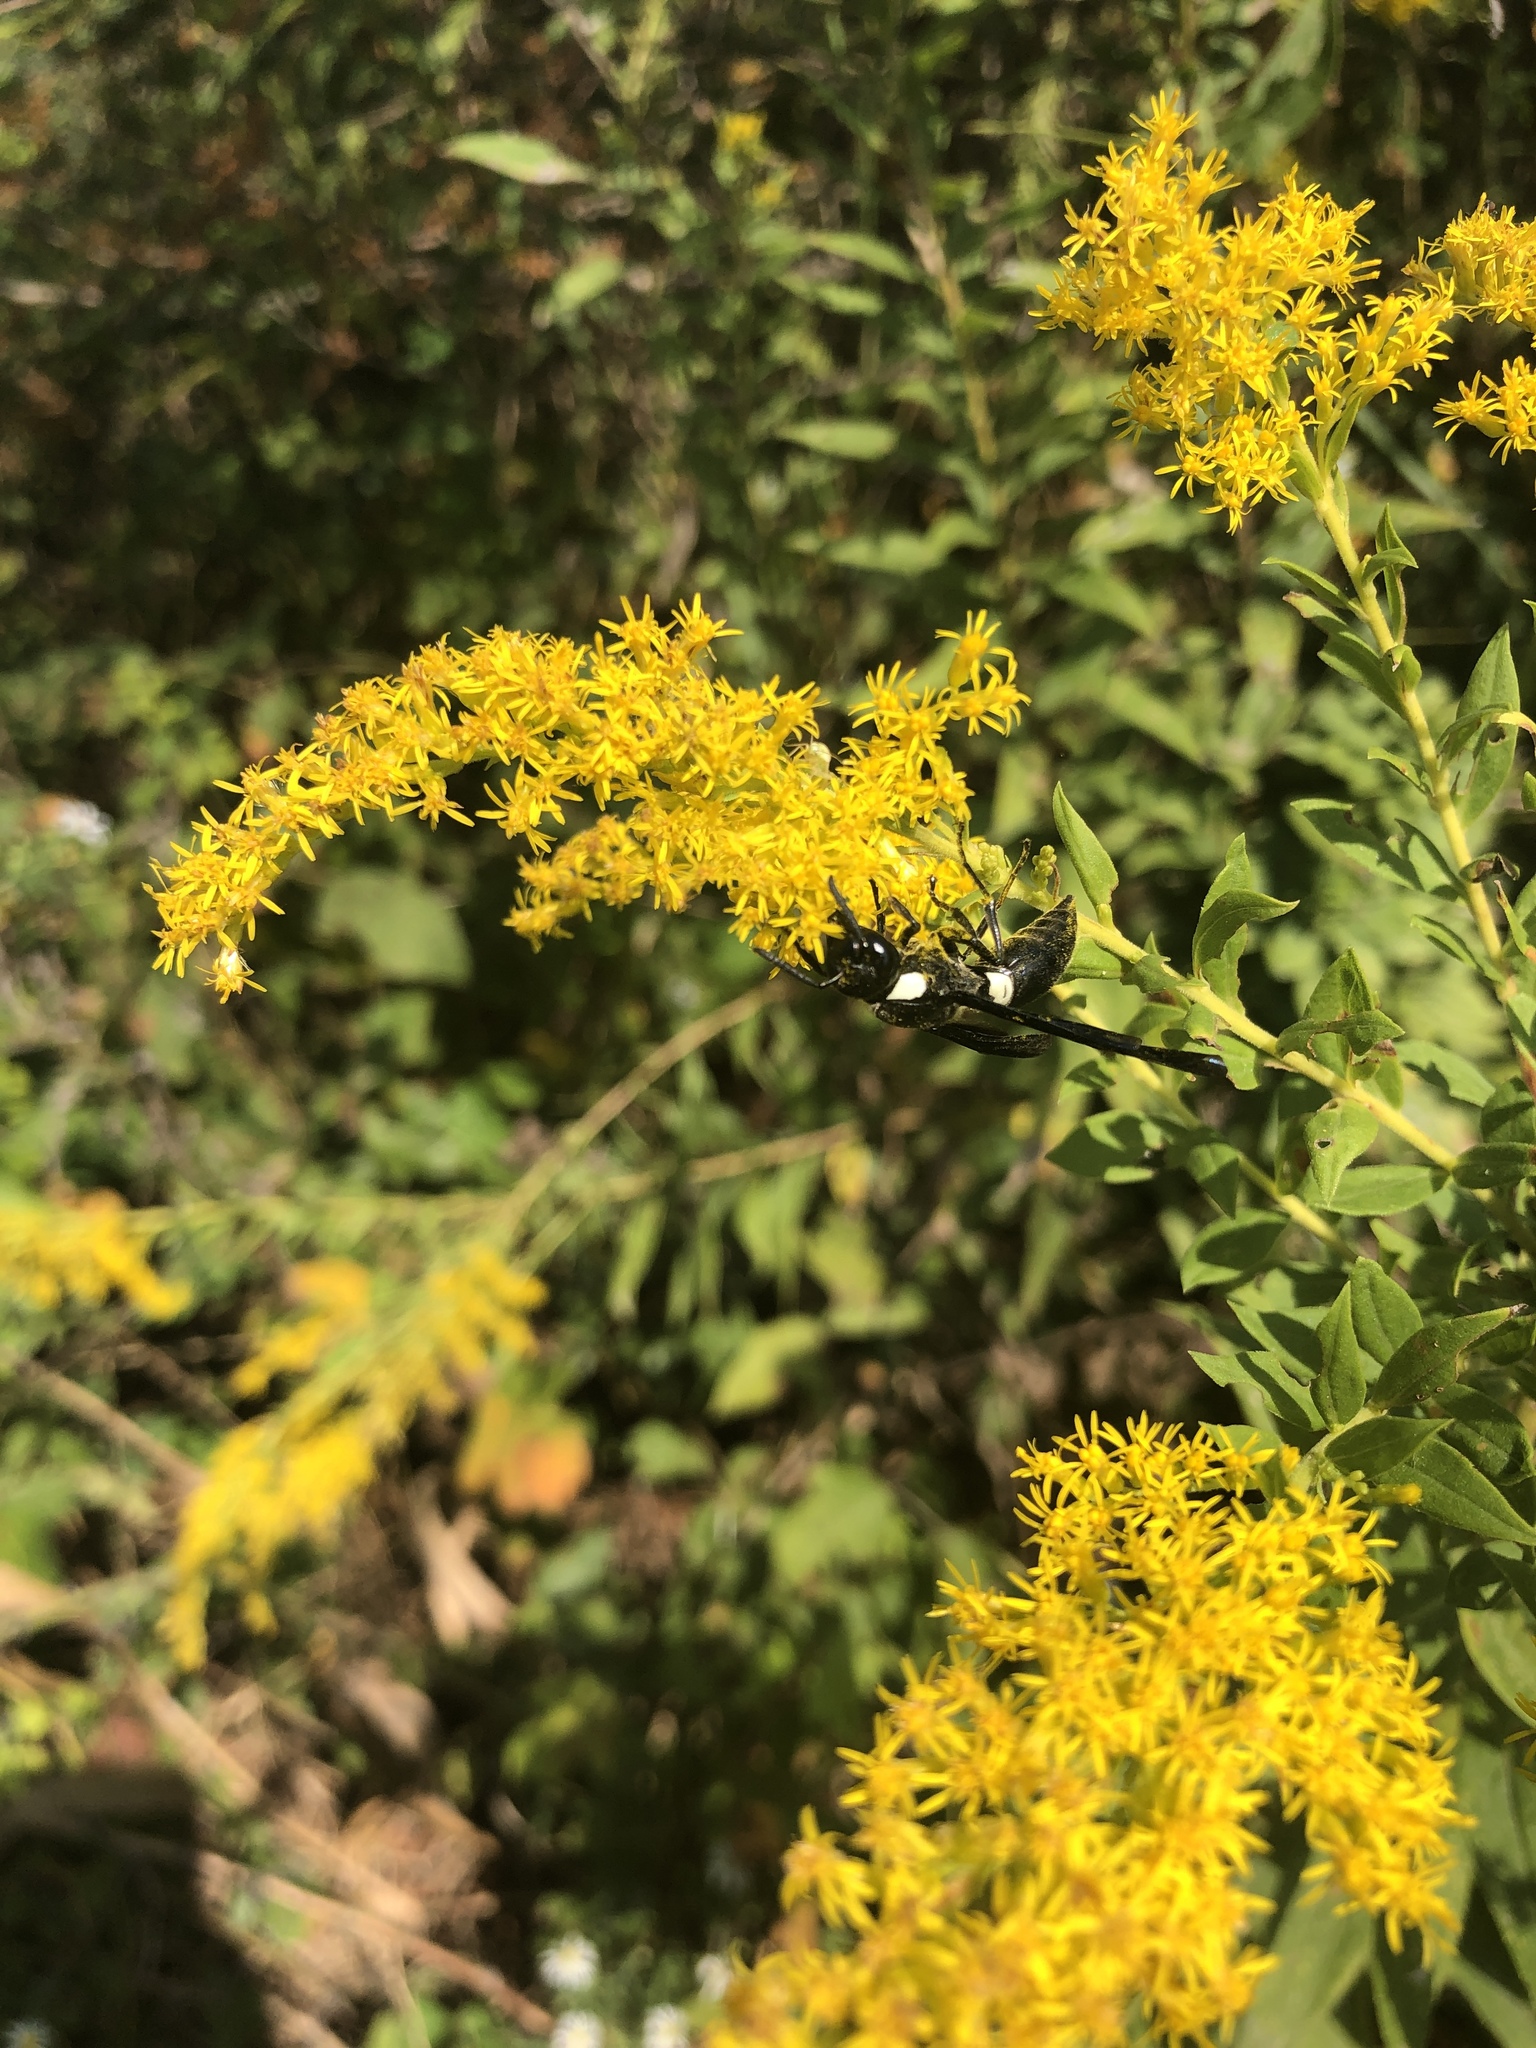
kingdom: Animalia
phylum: Arthropoda
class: Insecta
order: Hymenoptera
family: Eumenidae
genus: Monobia
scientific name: Monobia quadridens
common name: Four-toothed mason wasp
